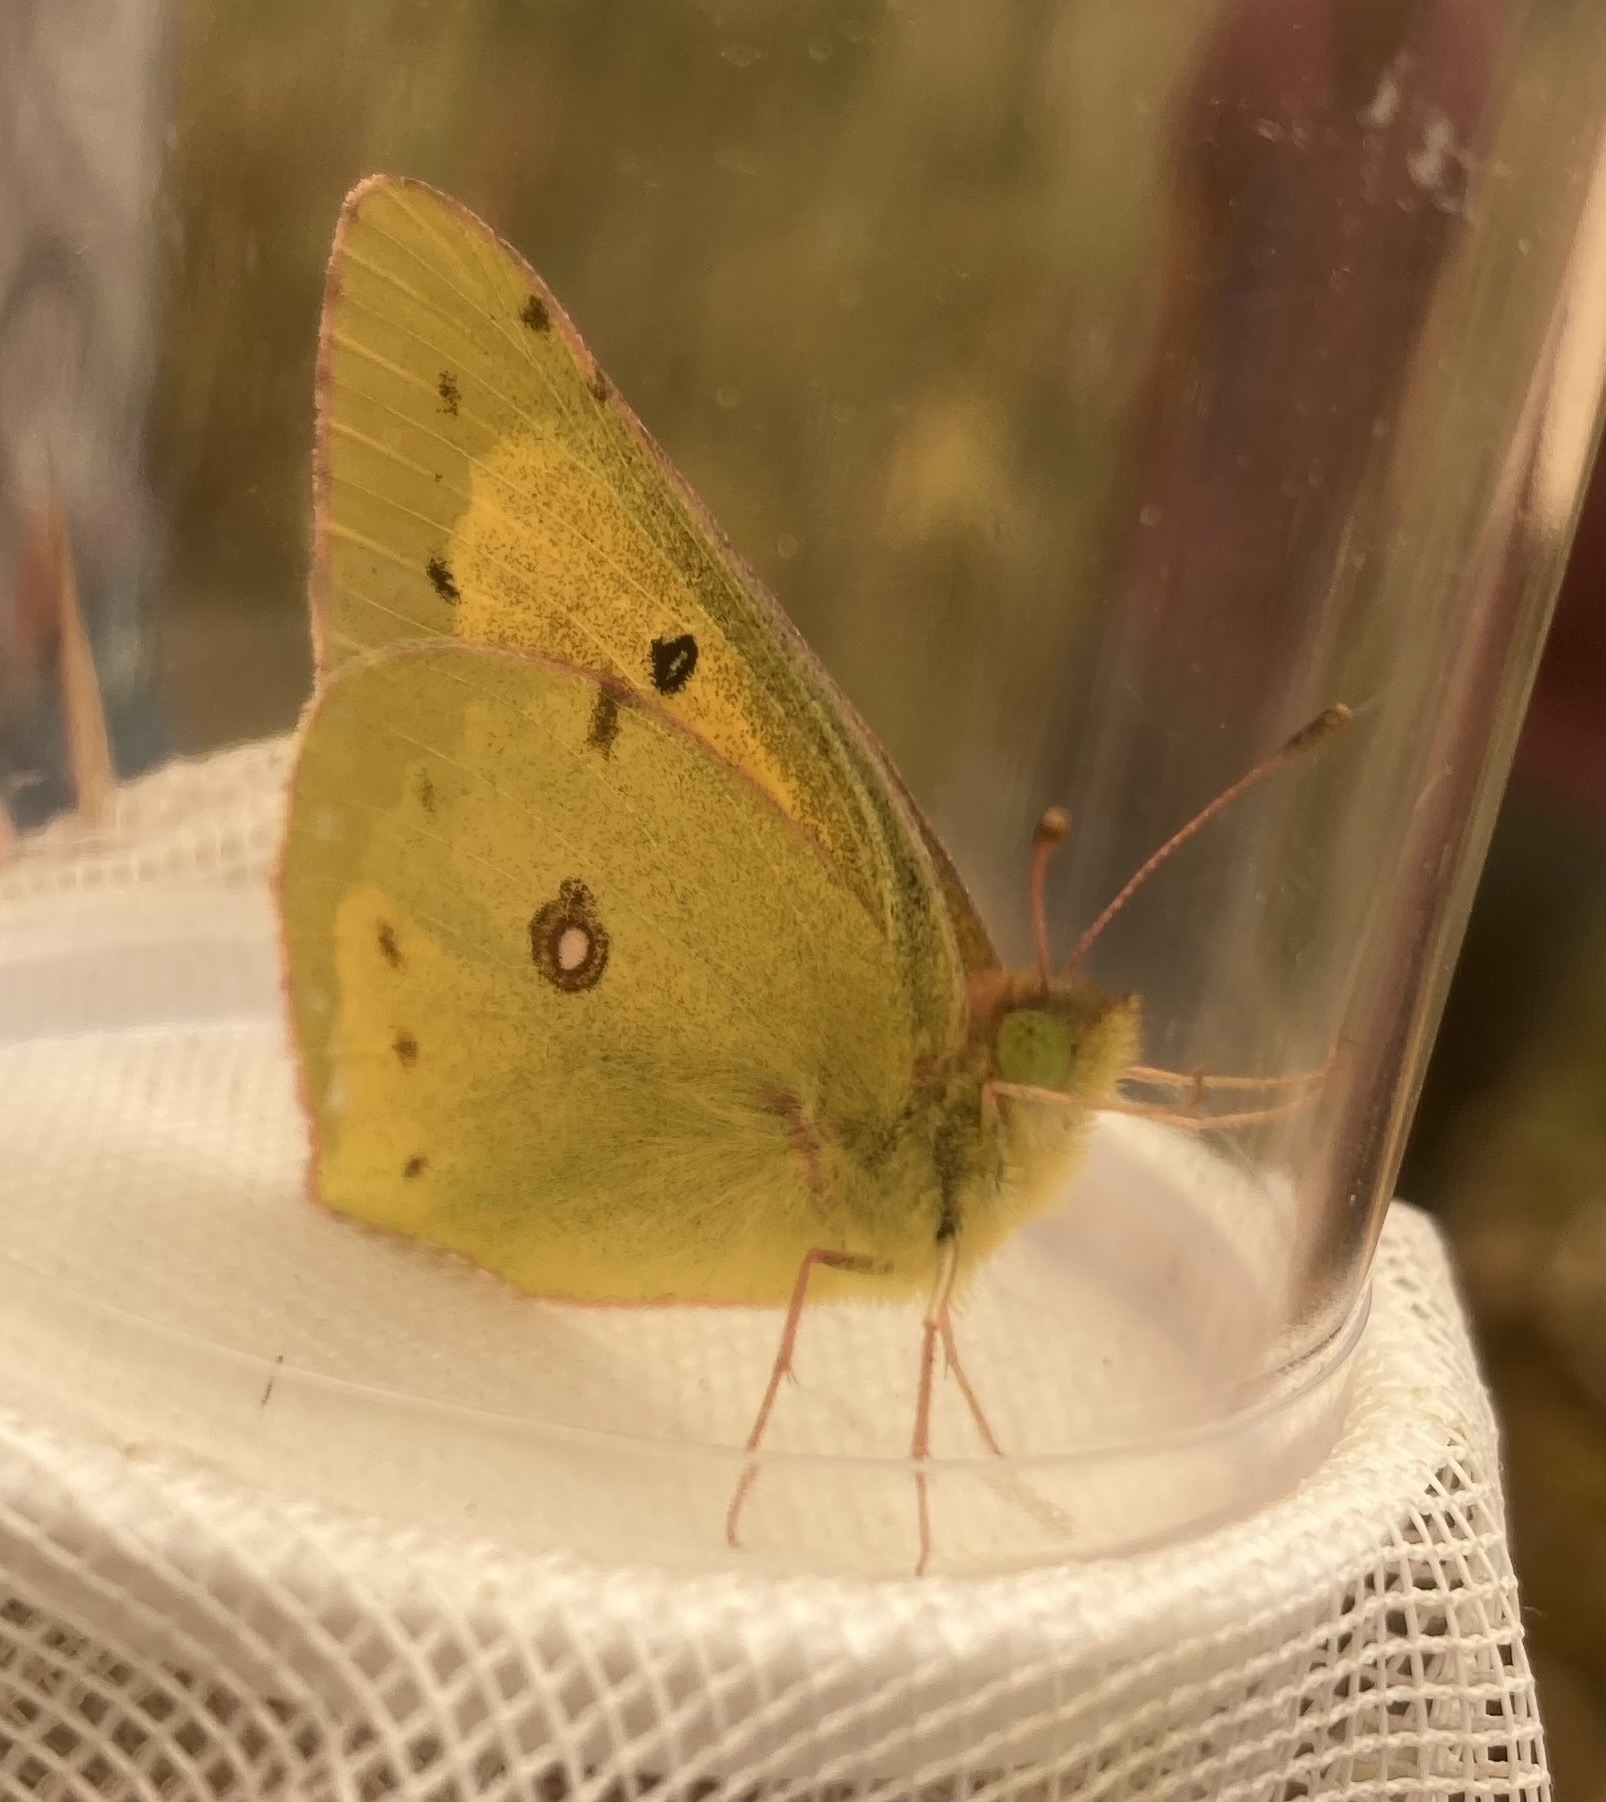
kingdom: Animalia
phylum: Arthropoda
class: Insecta
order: Lepidoptera
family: Pieridae
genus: Colias
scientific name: Colias eurytheme
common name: Alfalfa butterfly
